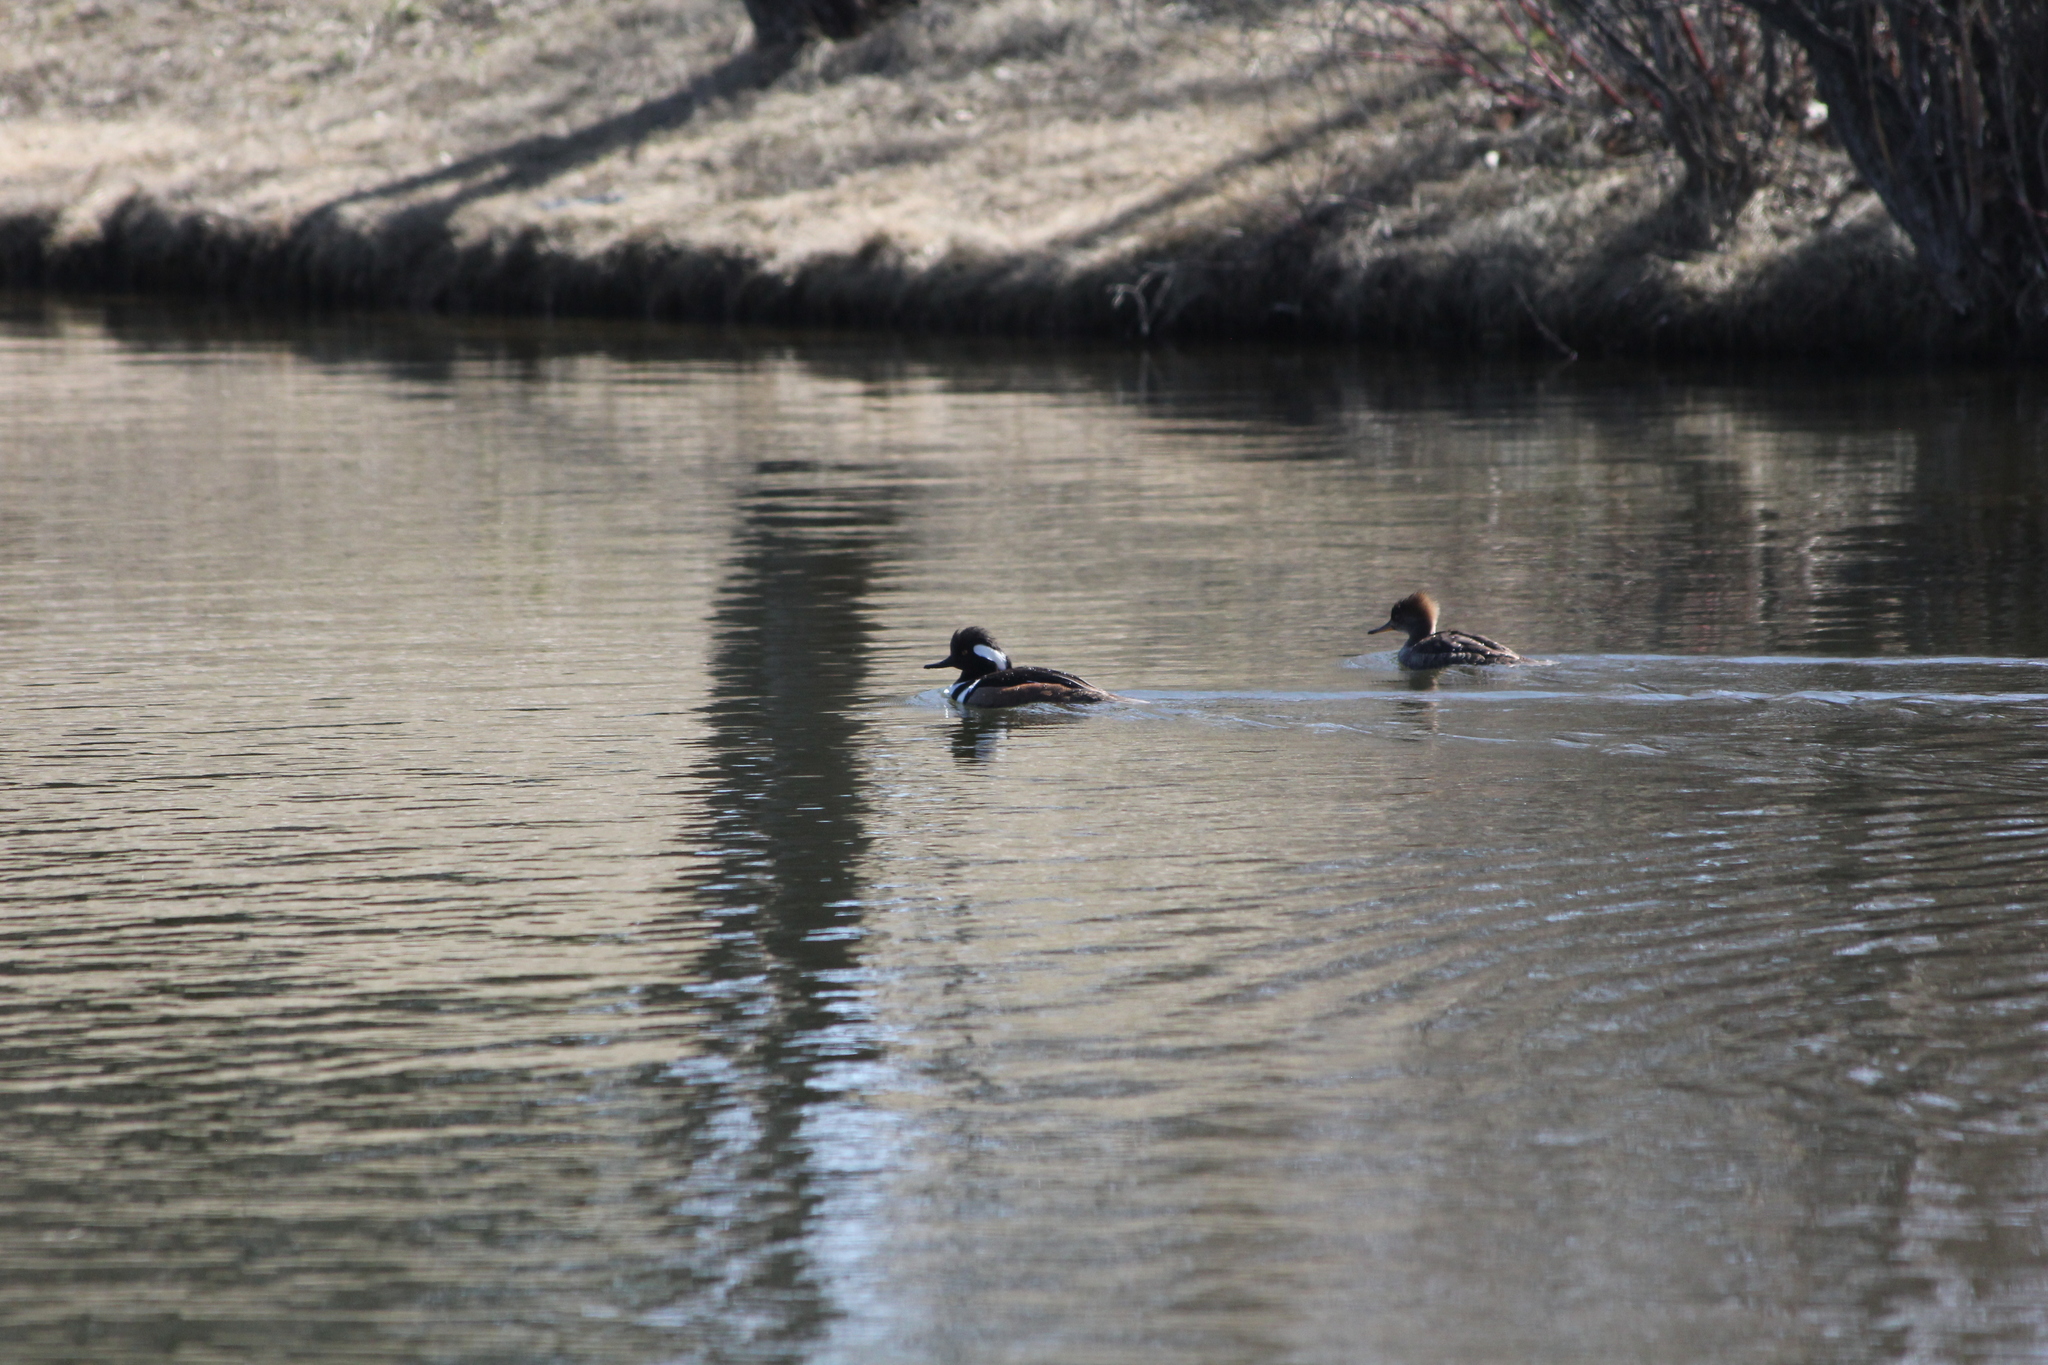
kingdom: Animalia
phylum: Chordata
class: Aves
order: Anseriformes
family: Anatidae
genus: Lophodytes
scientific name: Lophodytes cucullatus
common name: Hooded merganser
